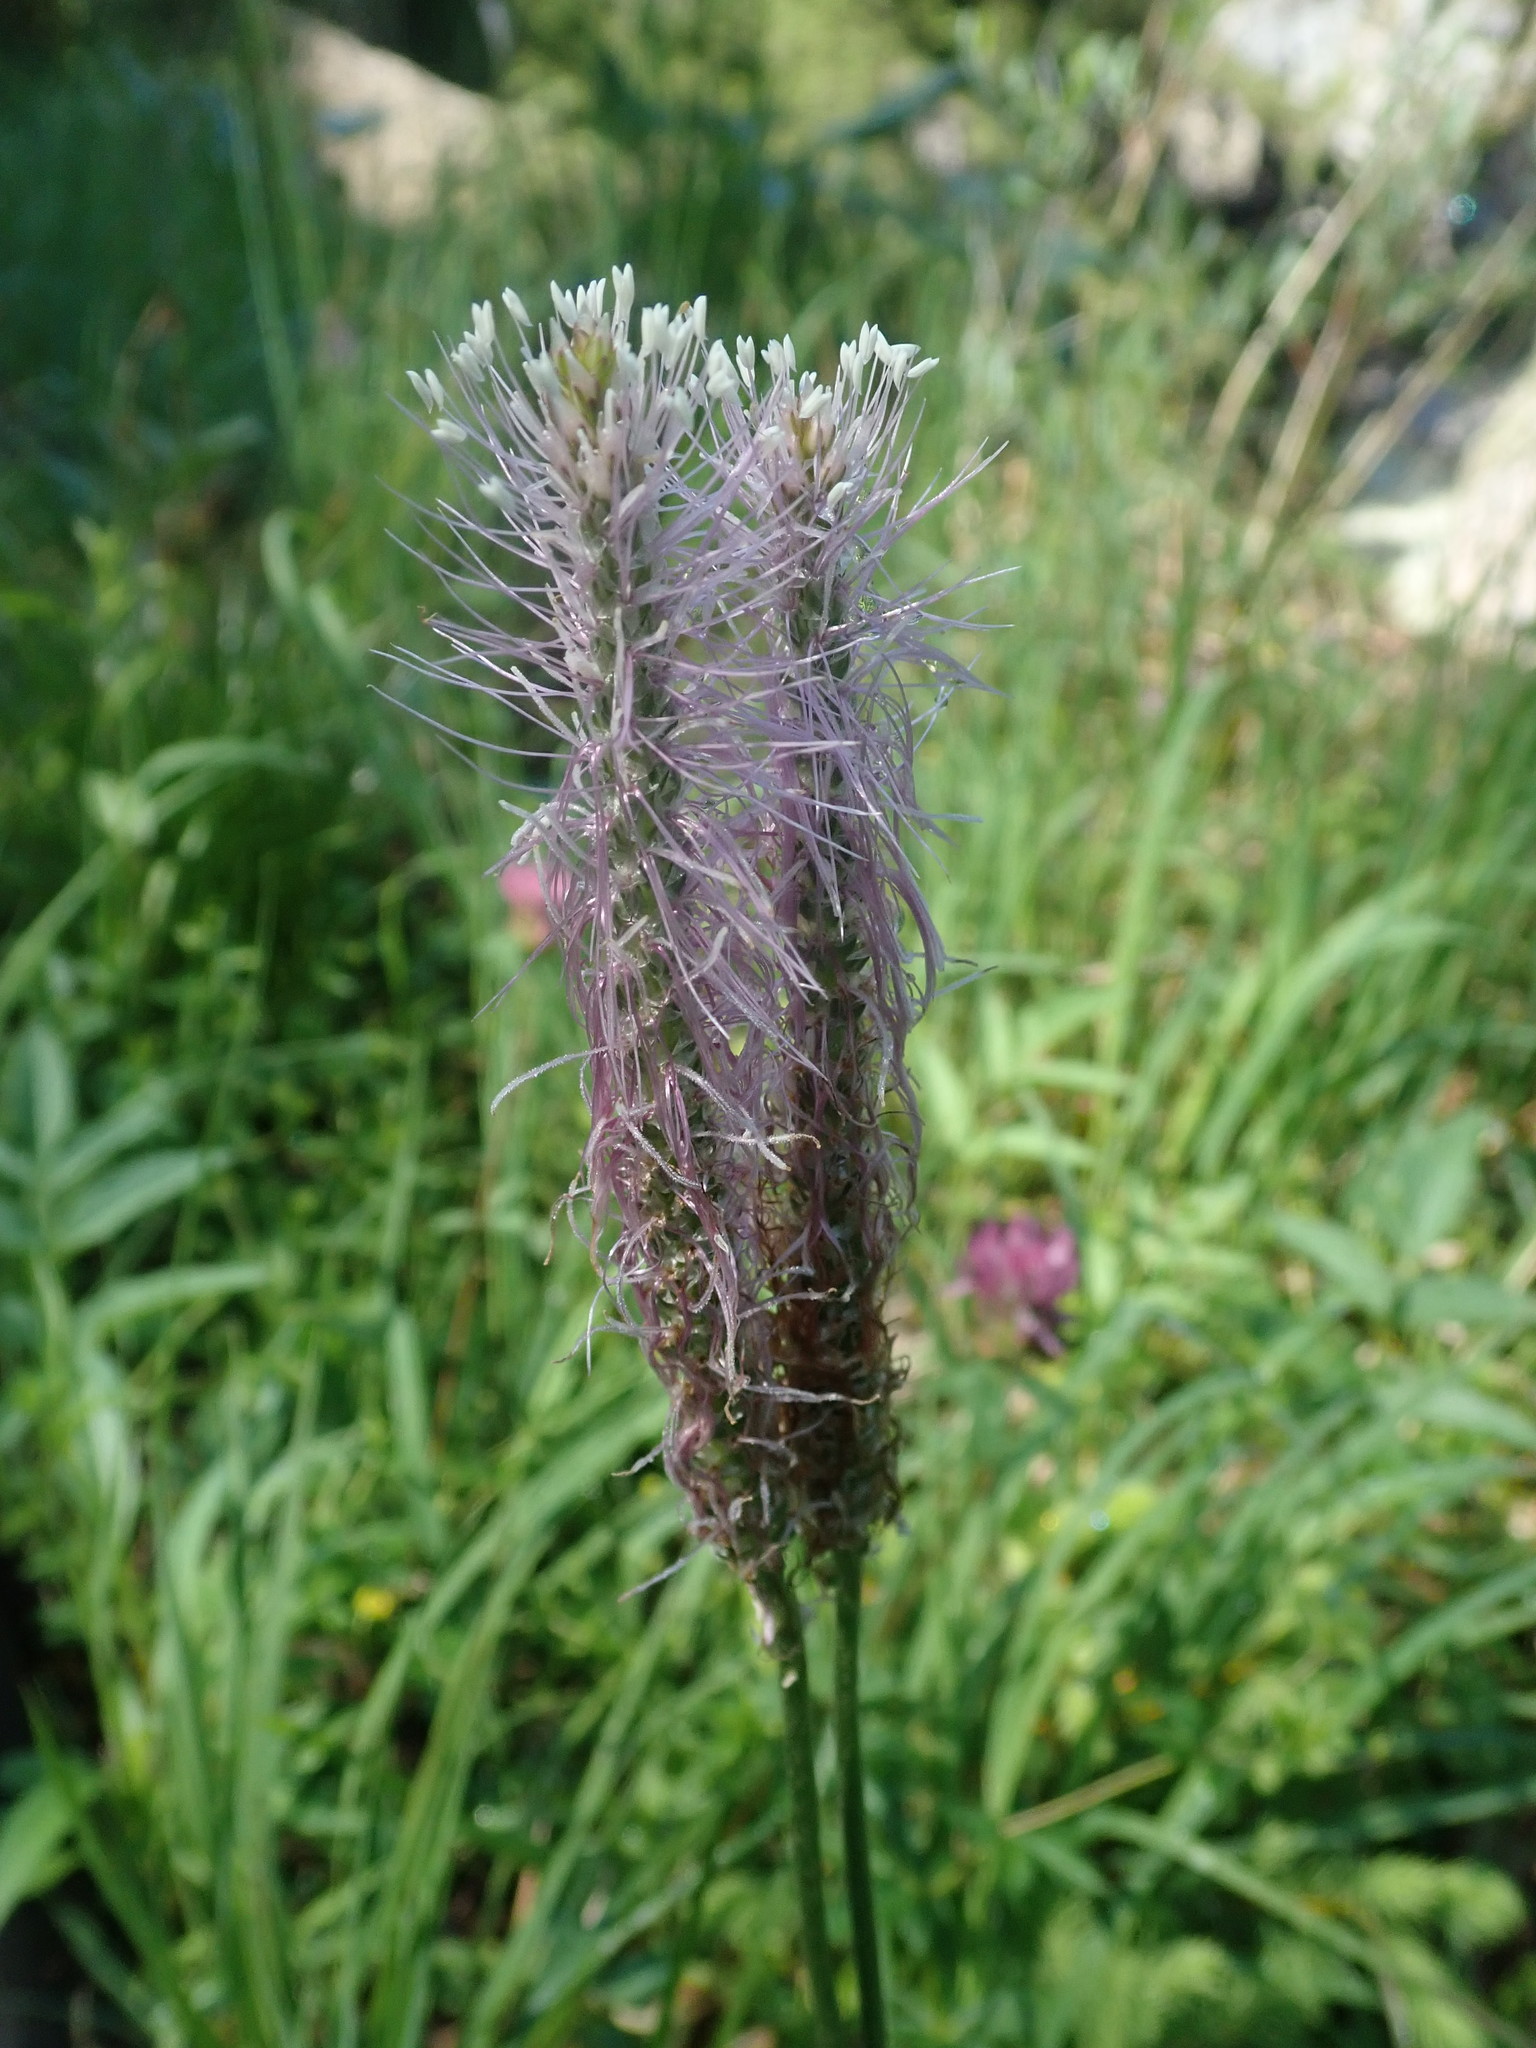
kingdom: Plantae
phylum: Tracheophyta
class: Magnoliopsida
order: Lamiales
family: Plantaginaceae
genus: Plantago
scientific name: Plantago media
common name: Hoary plantain
